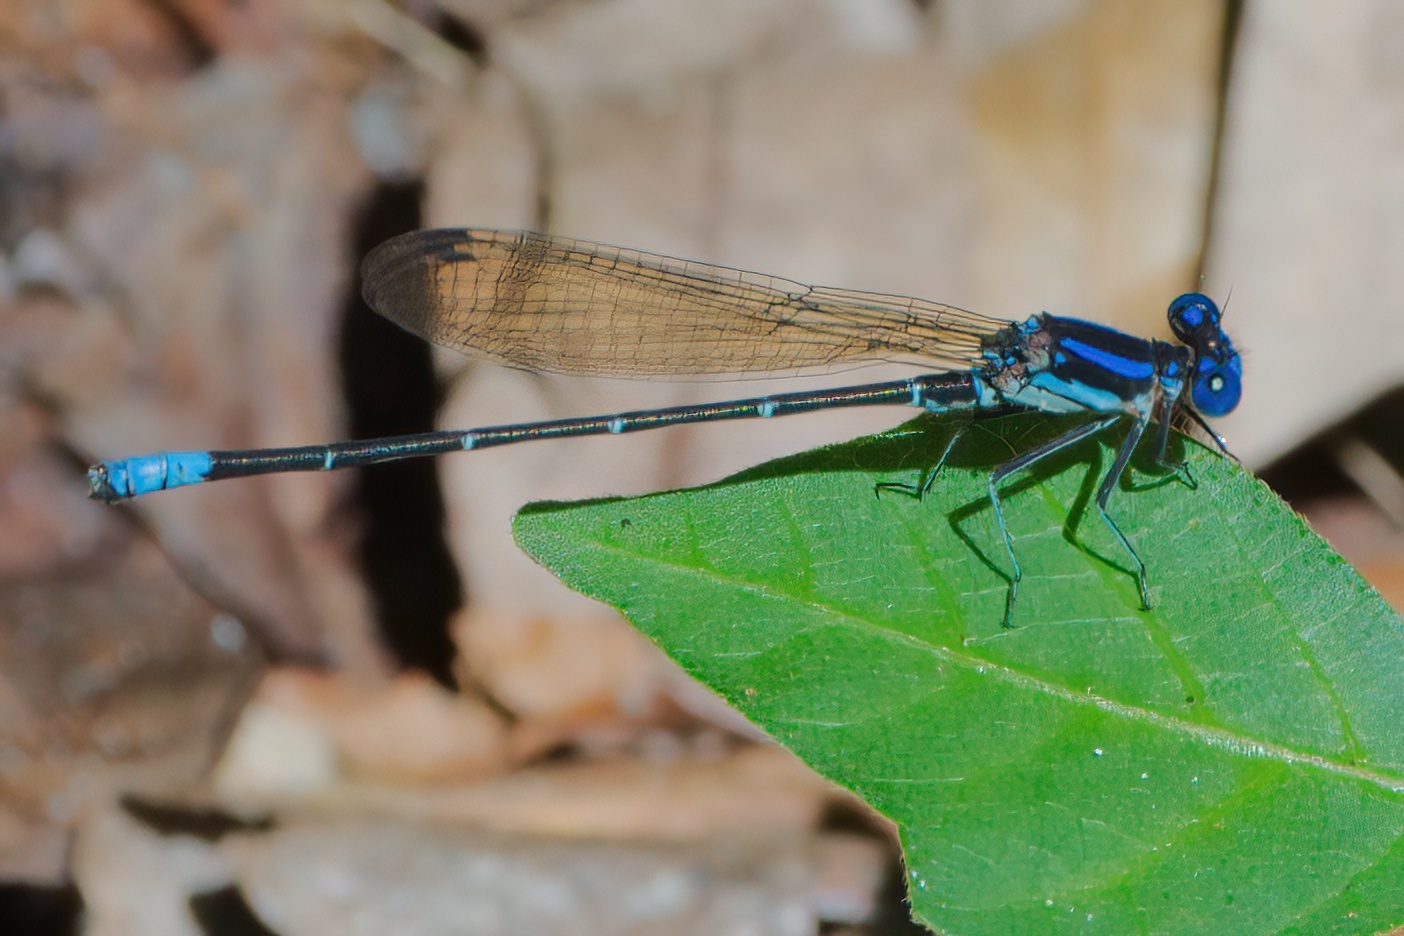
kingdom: Animalia
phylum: Arthropoda
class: Insecta
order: Odonata
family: Coenagrionidae
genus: Argia
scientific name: Argia sedula
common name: Blue-ringed dancer
